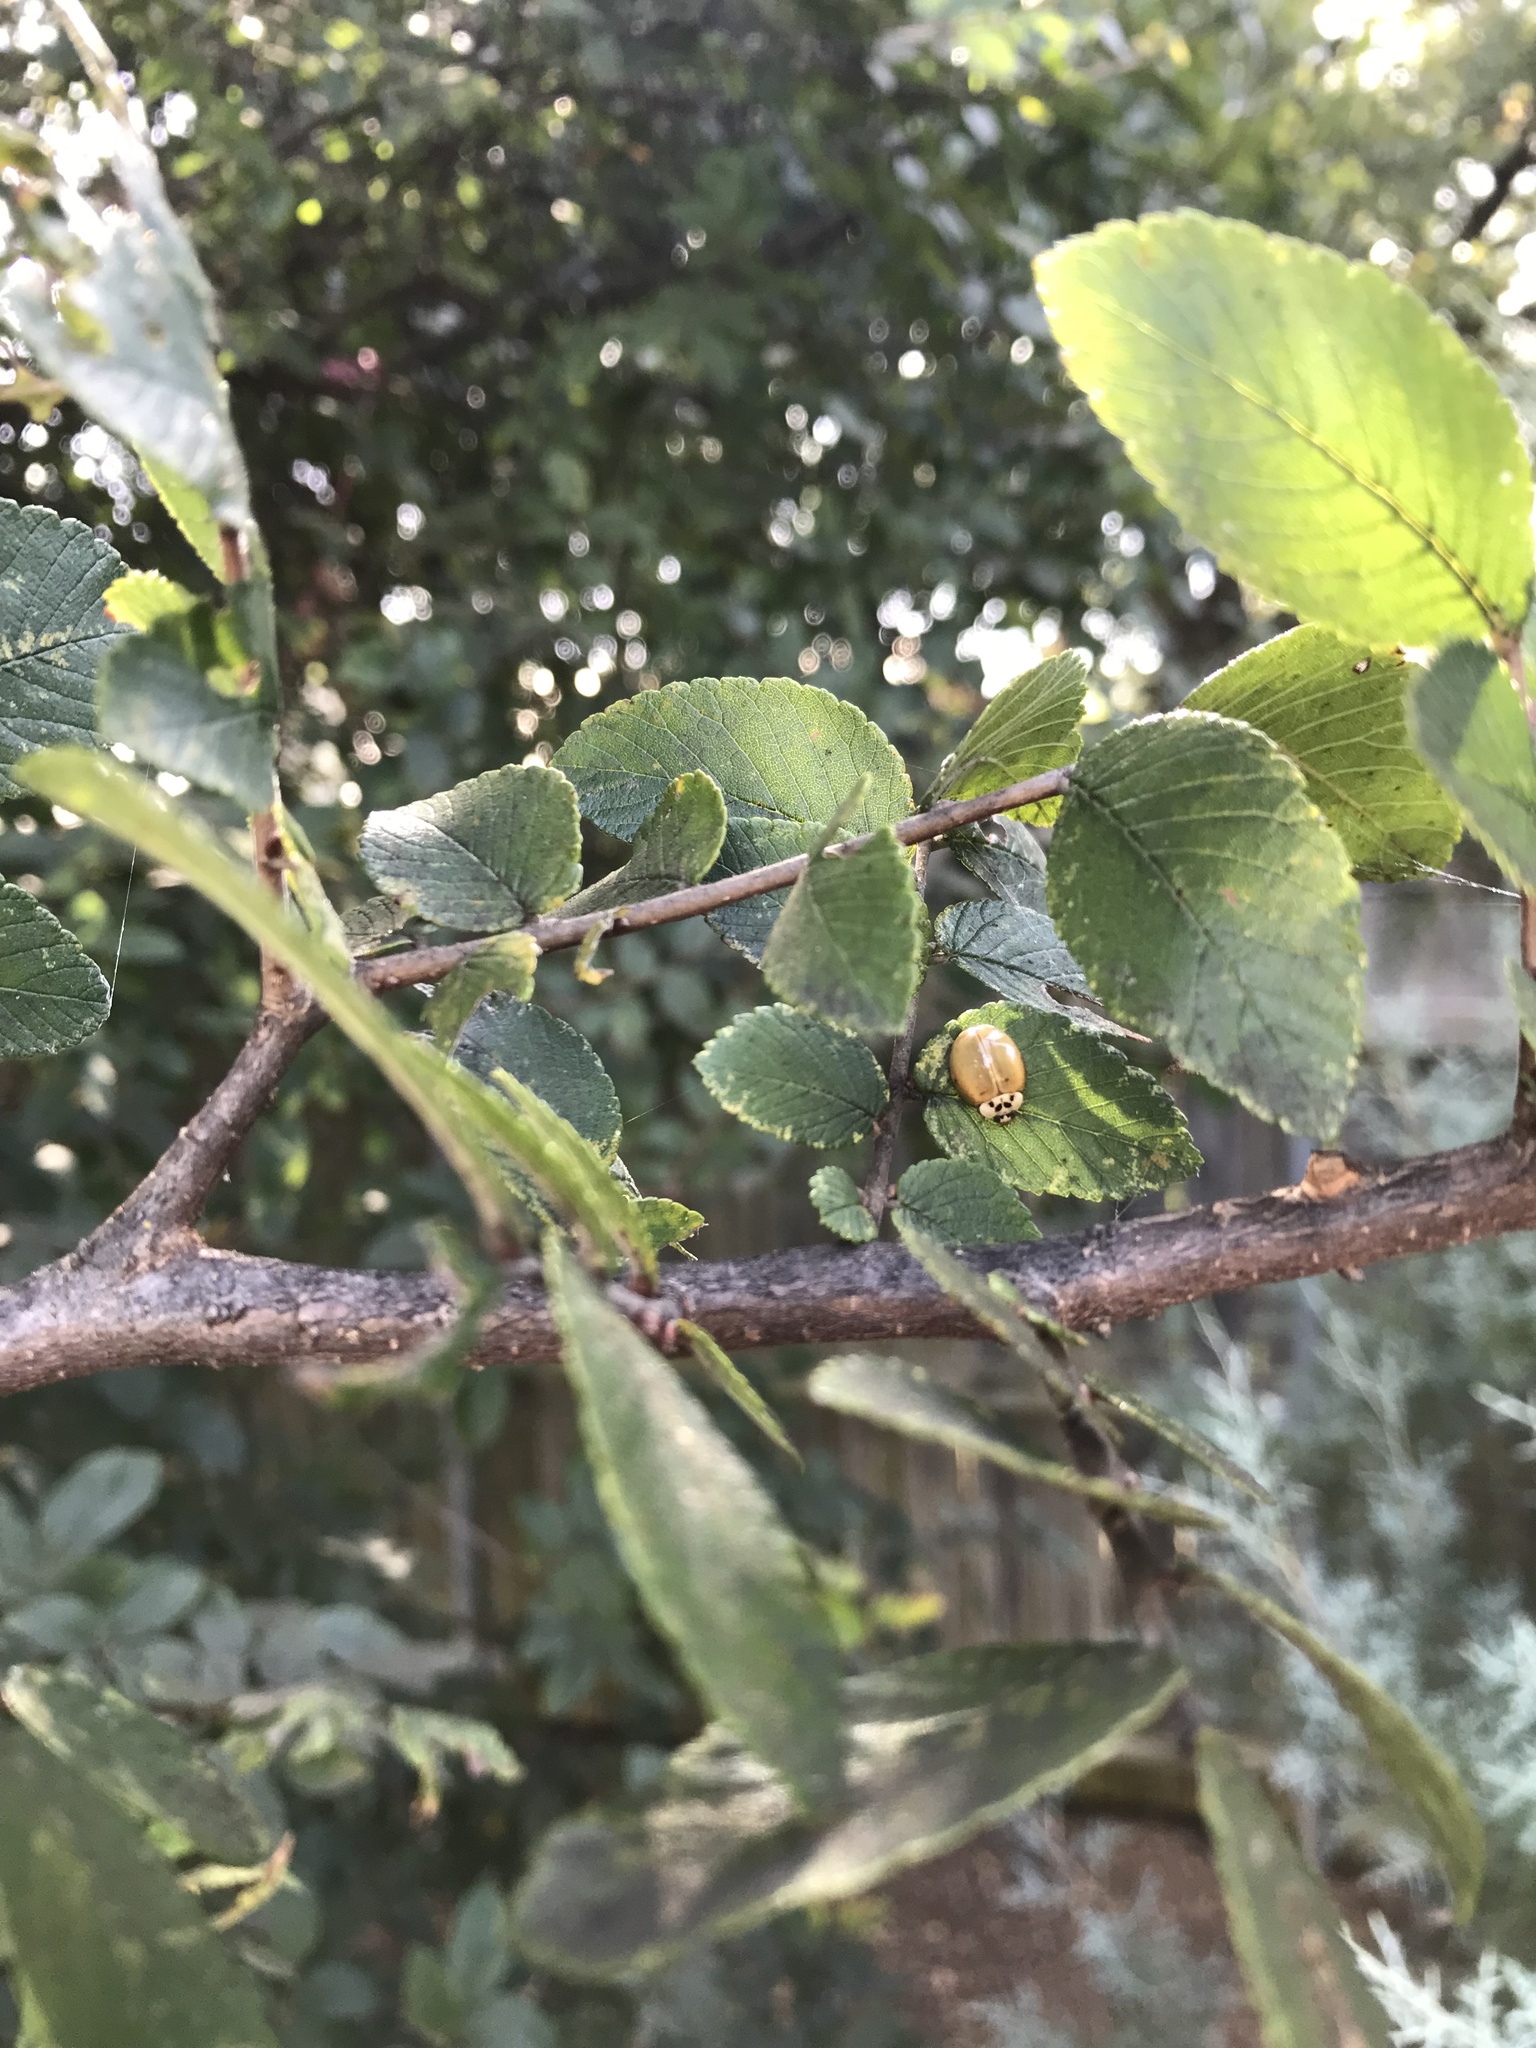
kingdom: Animalia
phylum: Arthropoda
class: Insecta
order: Coleoptera
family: Coccinellidae
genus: Harmonia
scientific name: Harmonia axyridis
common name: Harlequin ladybird
